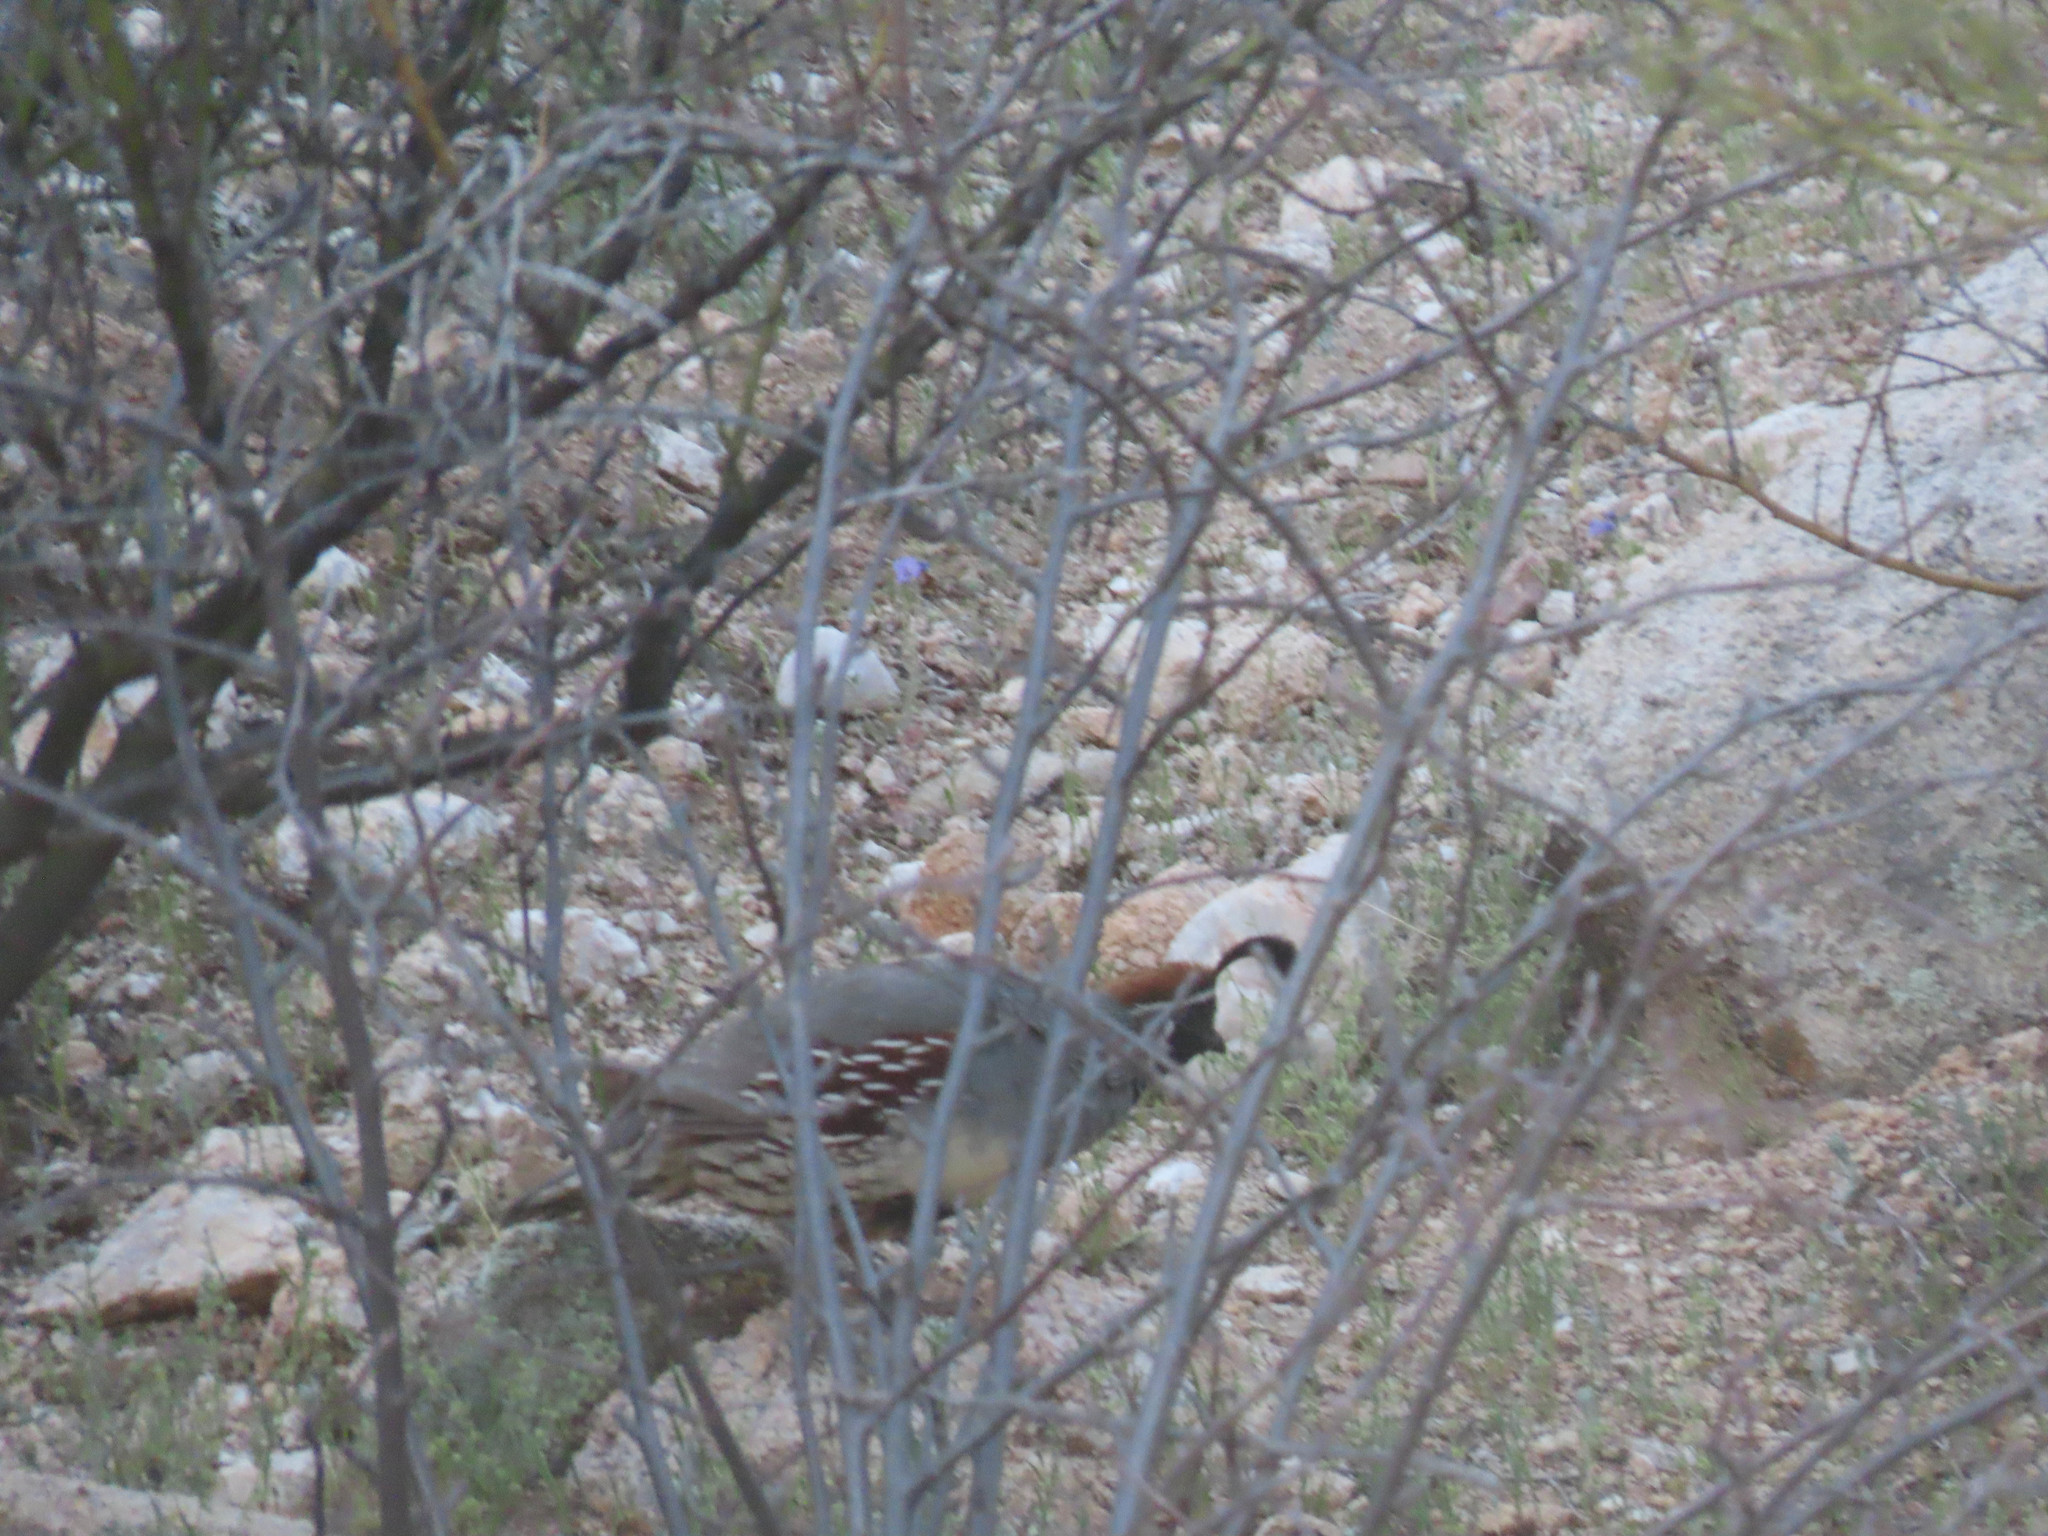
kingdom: Animalia
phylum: Chordata
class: Aves
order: Galliformes
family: Odontophoridae
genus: Callipepla
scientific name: Callipepla gambelii
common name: Gambel's quail
